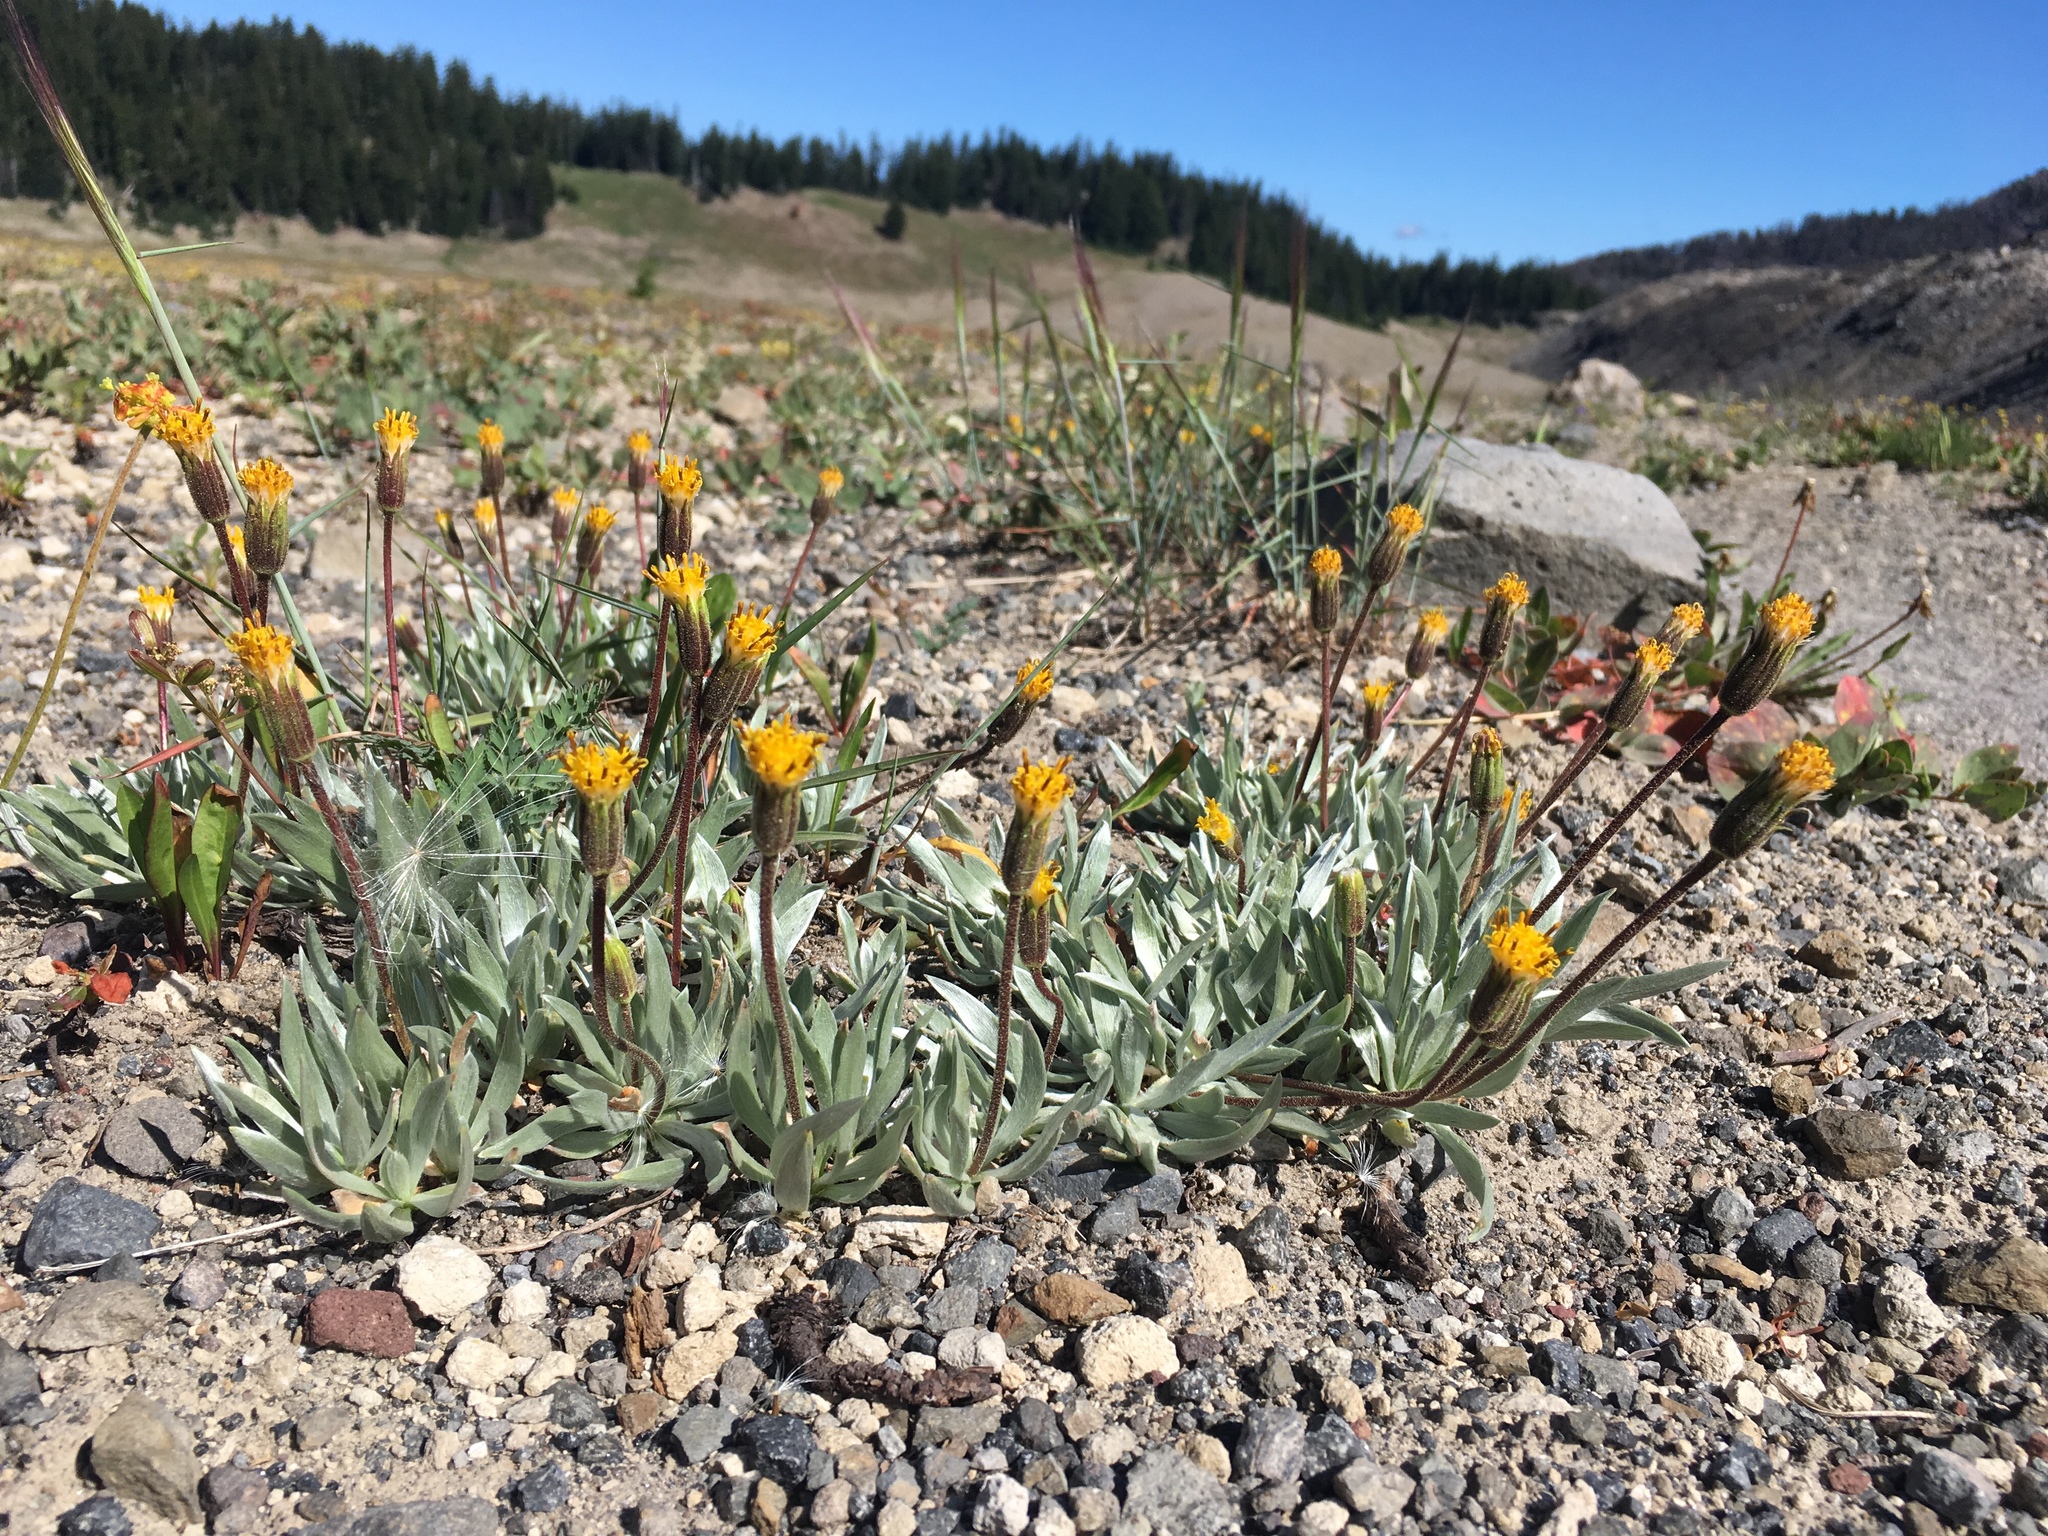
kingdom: Plantae
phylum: Tracheophyta
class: Magnoliopsida
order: Asterales
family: Asteraceae
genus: Raillardella
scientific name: Raillardella argentea
